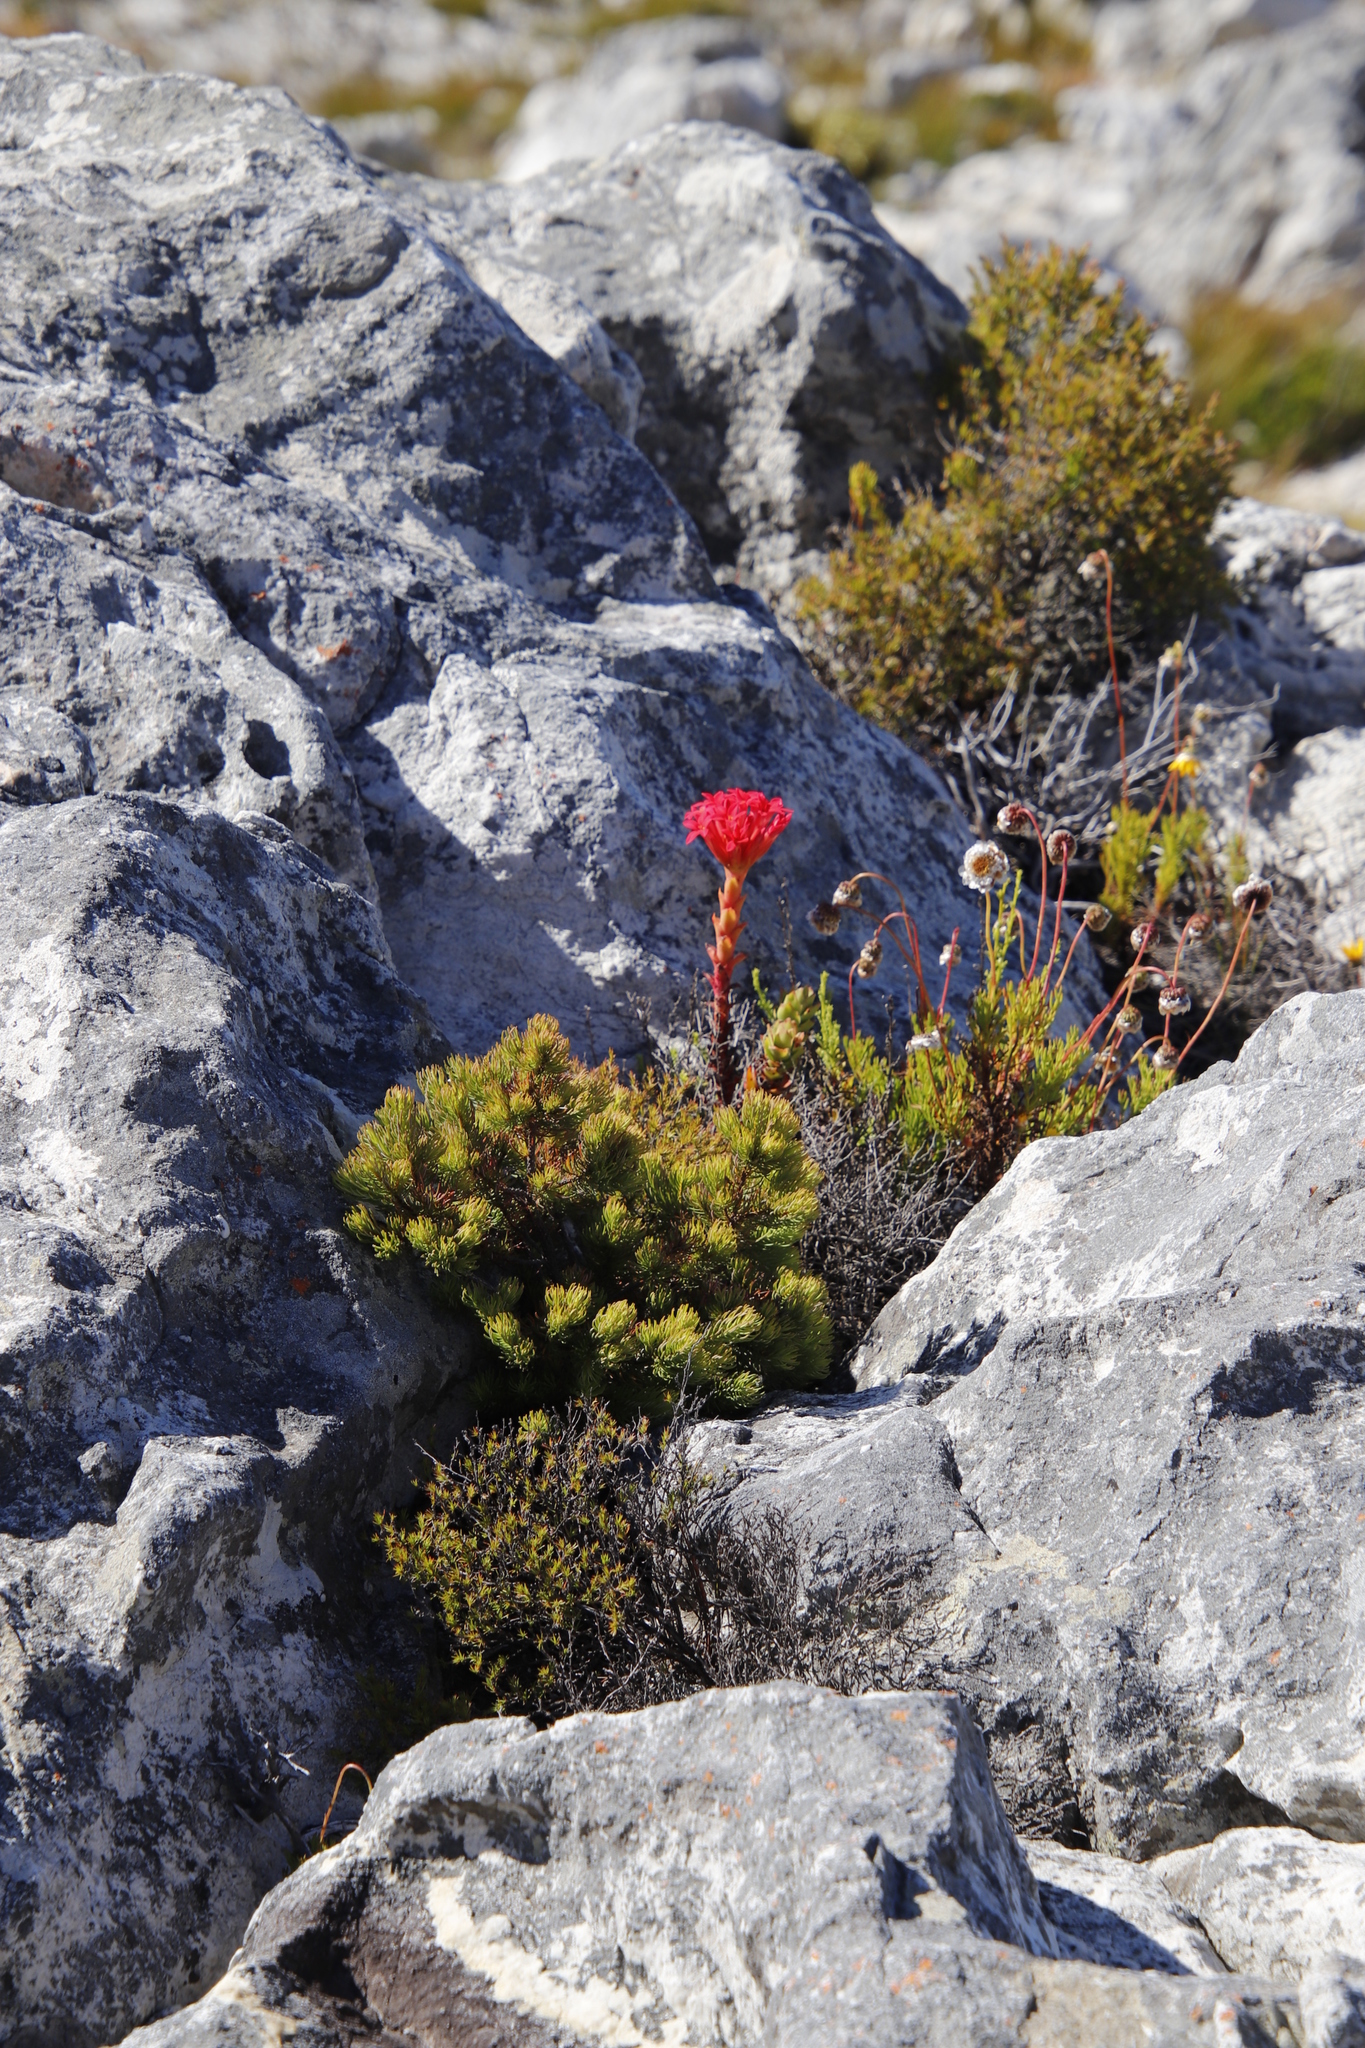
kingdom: Plantae
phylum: Tracheophyta
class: Magnoliopsida
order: Saxifragales
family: Crassulaceae
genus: Crassula
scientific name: Crassula coccinea
